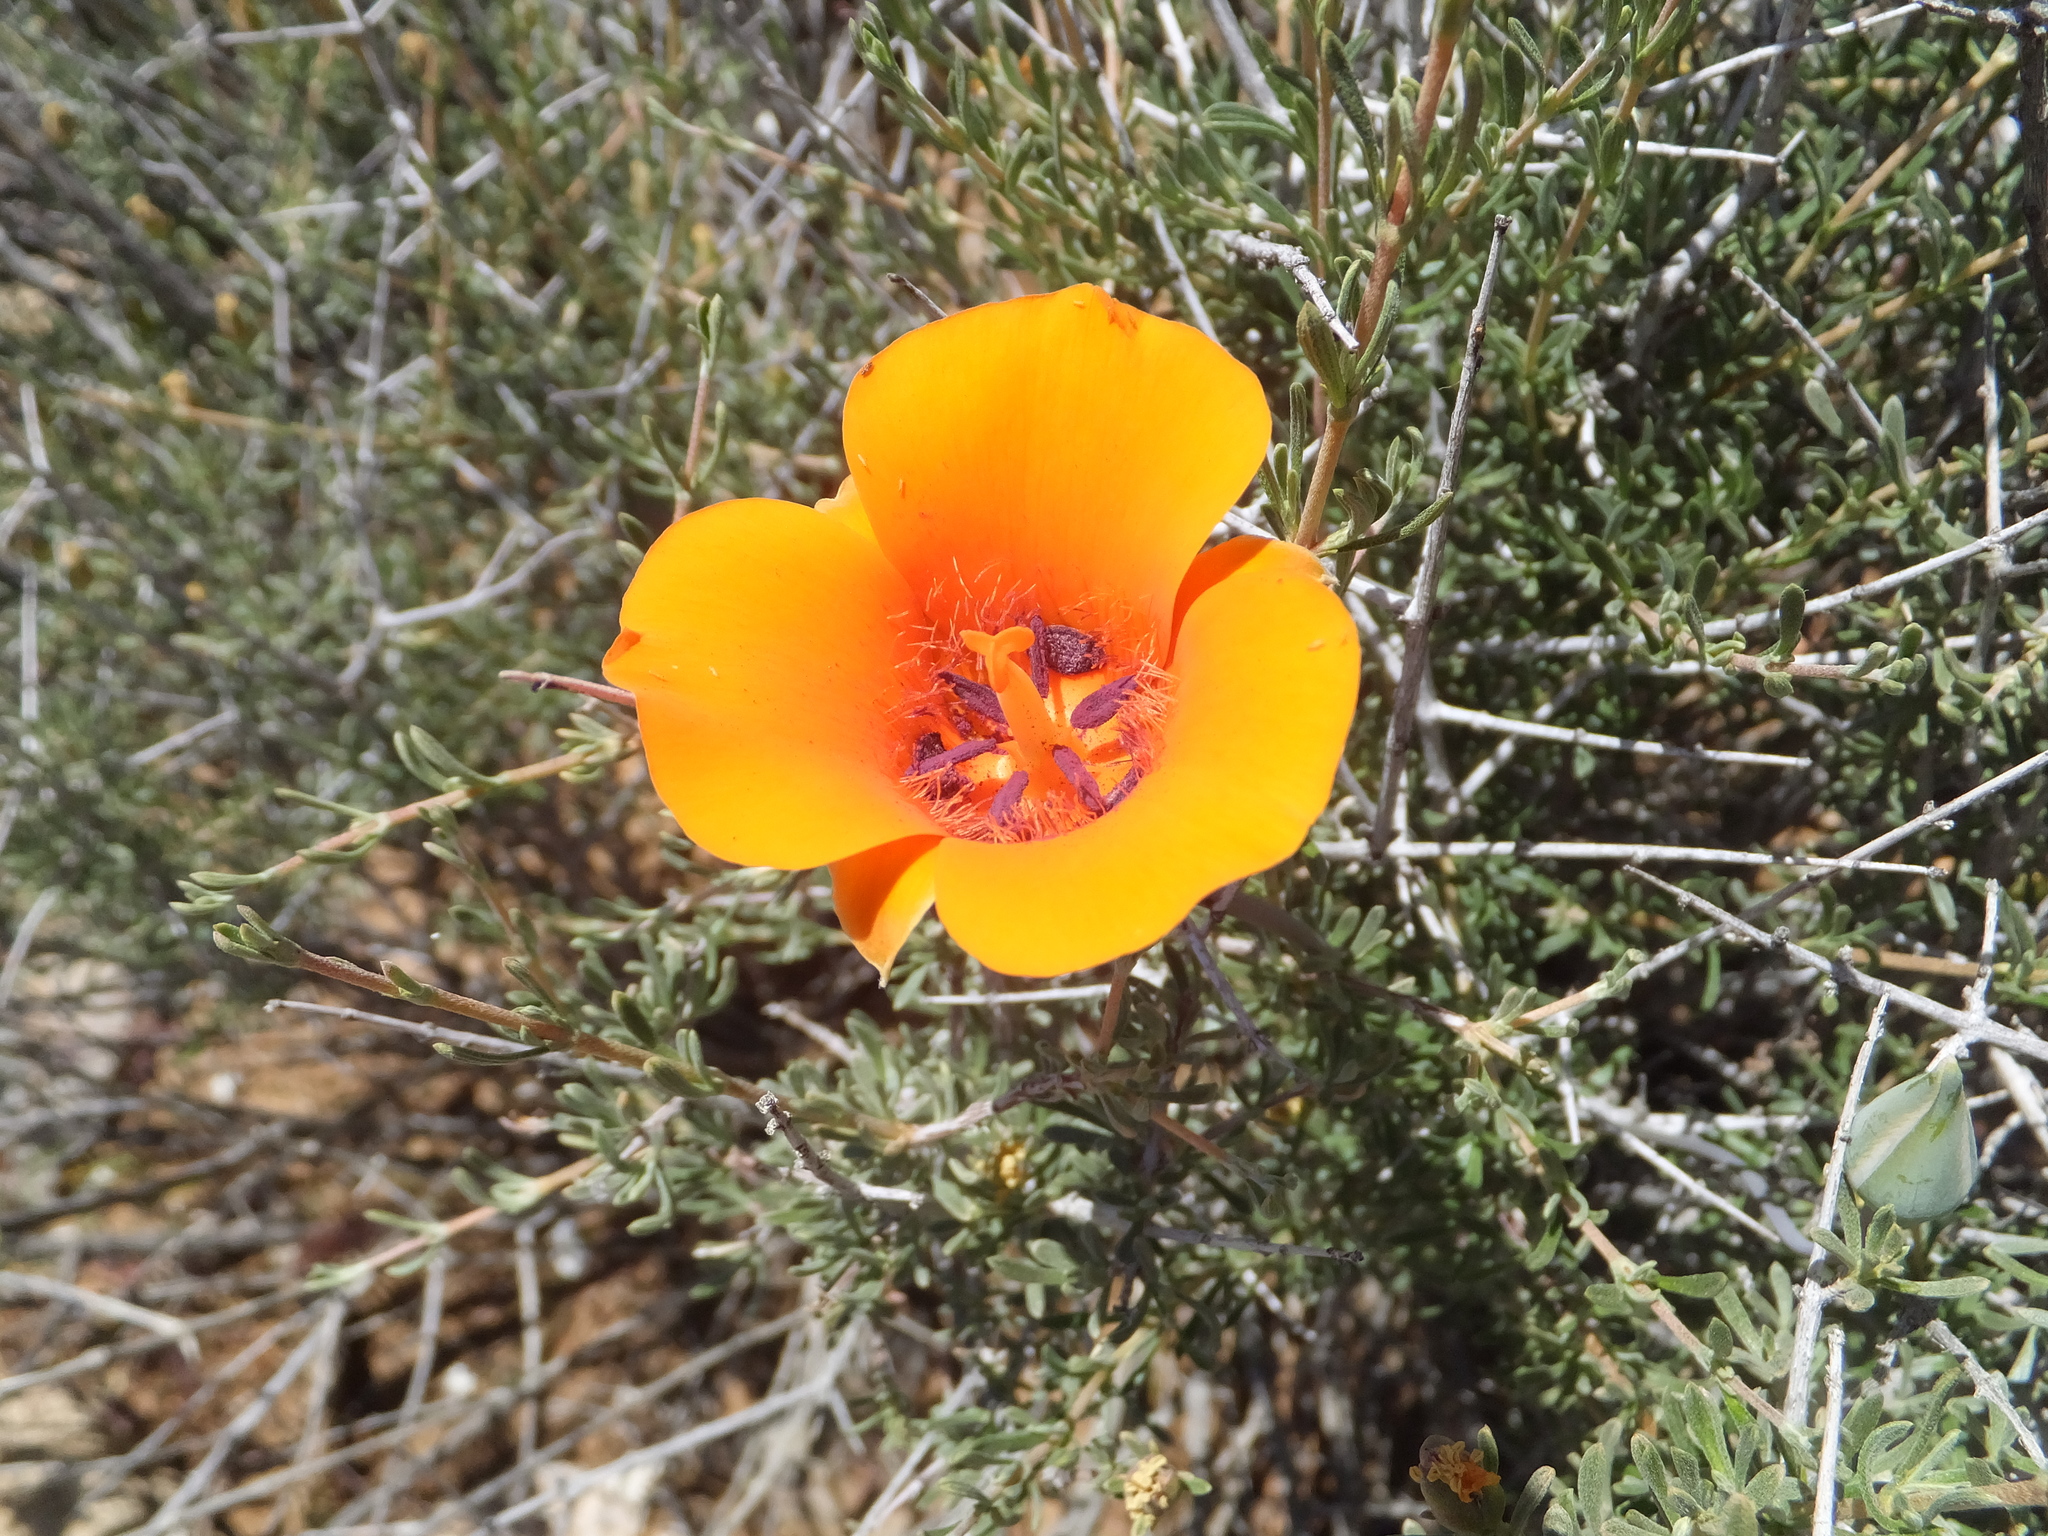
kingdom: Plantae
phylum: Tracheophyta
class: Liliopsida
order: Liliales
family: Liliaceae
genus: Calochortus
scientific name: Calochortus kennedyi
